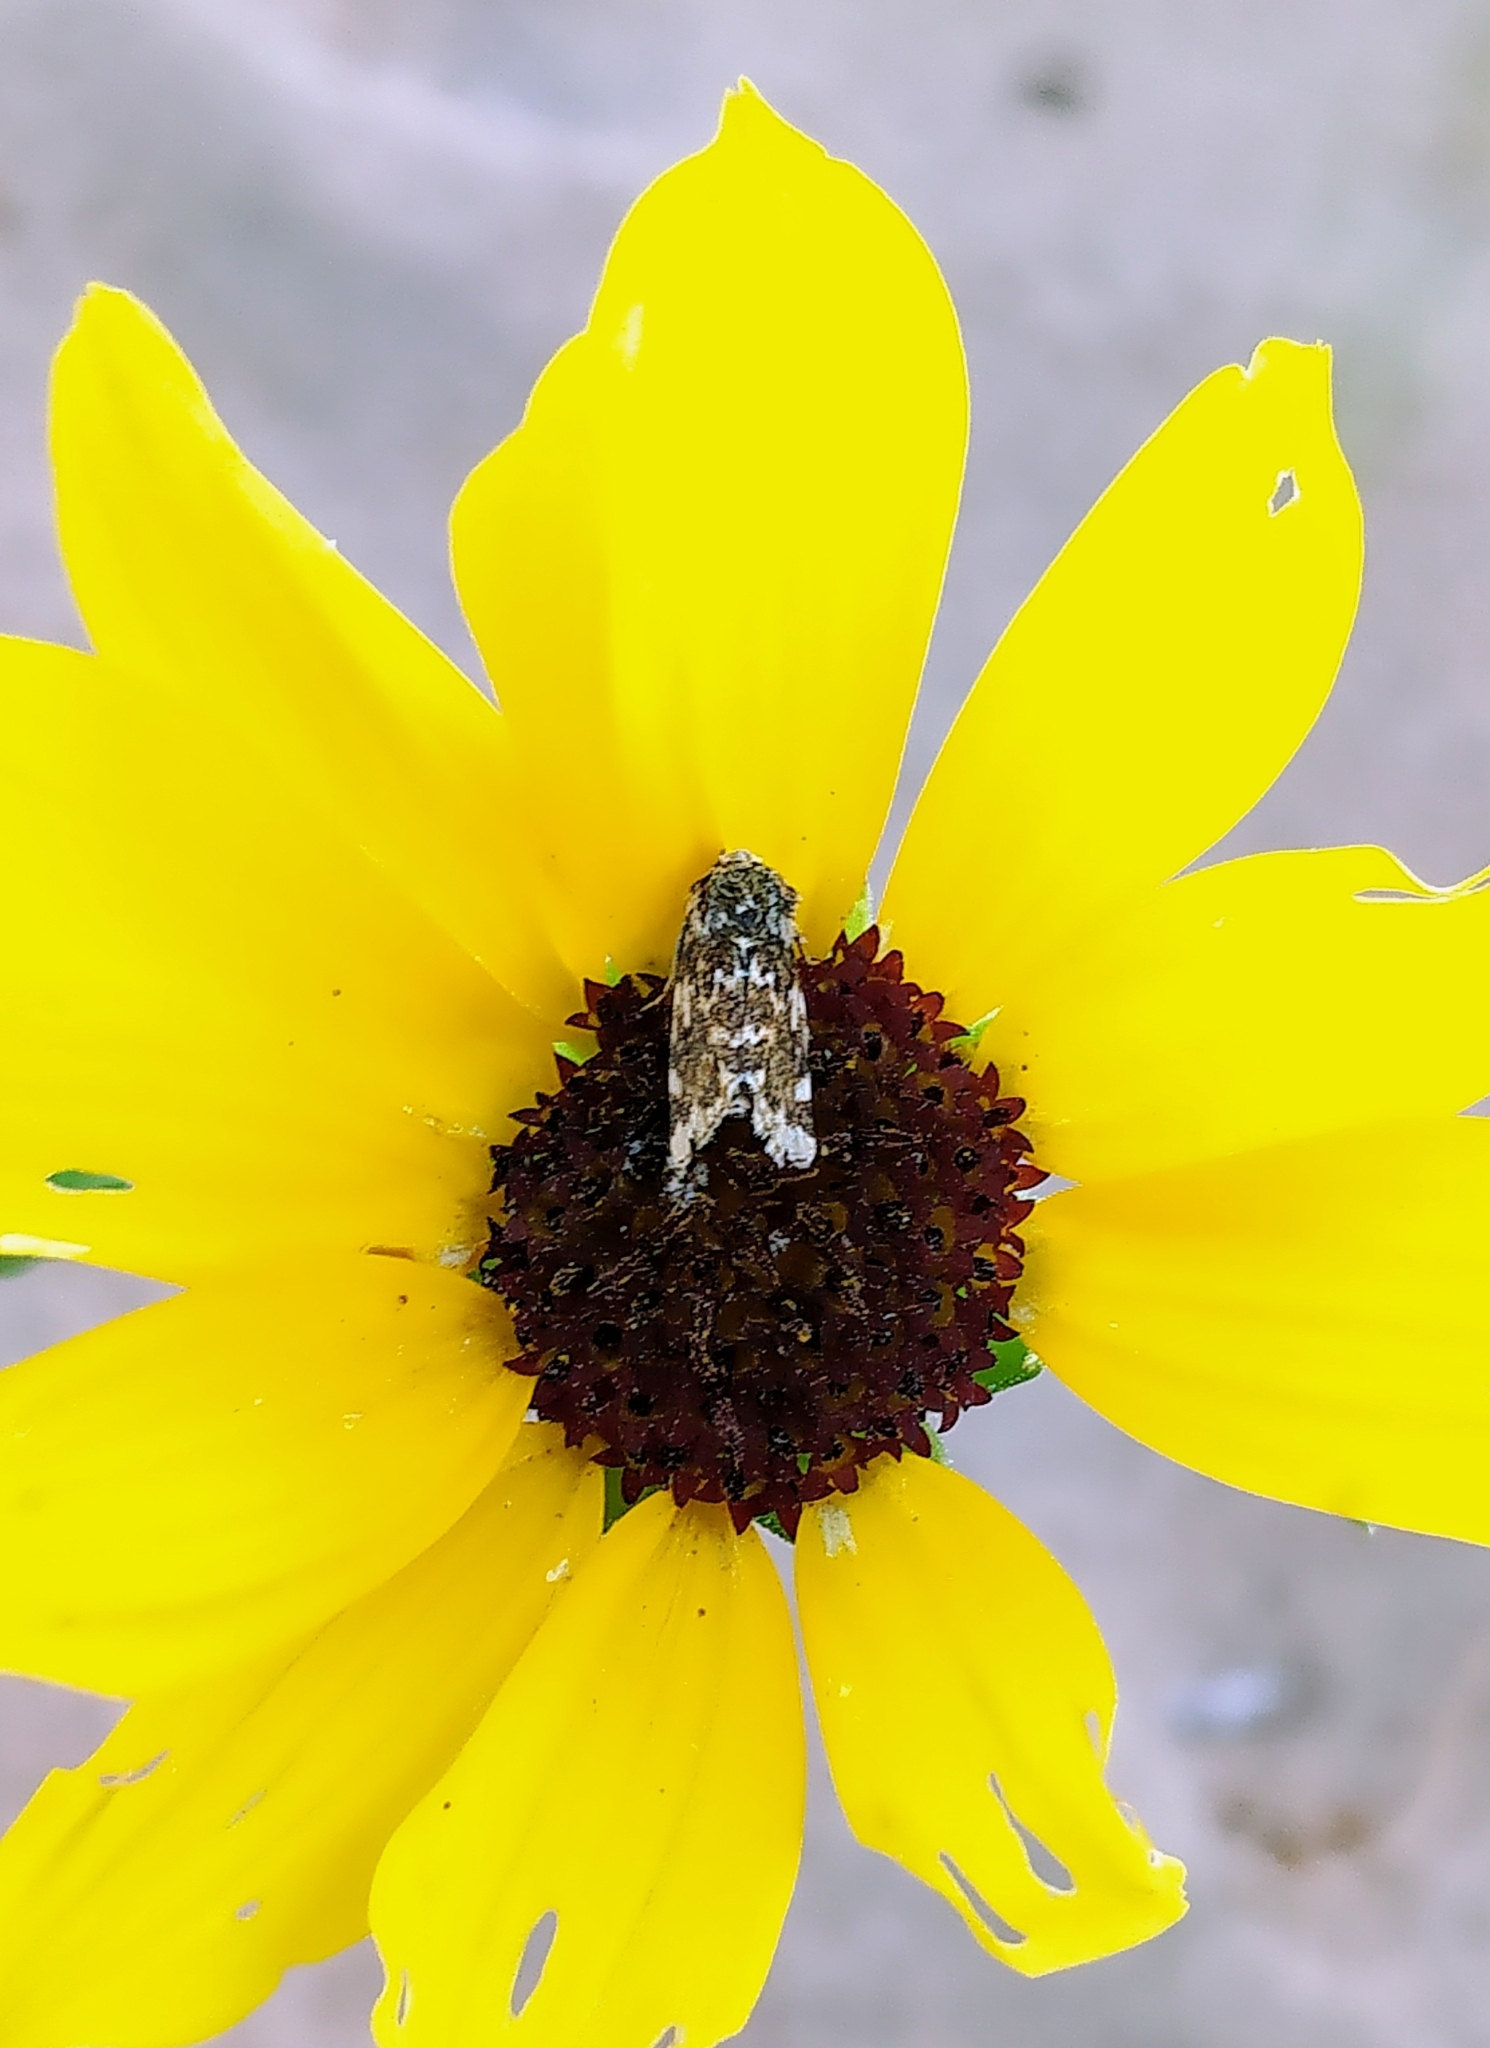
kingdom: Animalia
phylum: Arthropoda
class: Insecta
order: Lepidoptera
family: Noctuidae
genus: Schinia
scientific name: Schinia avemensis
